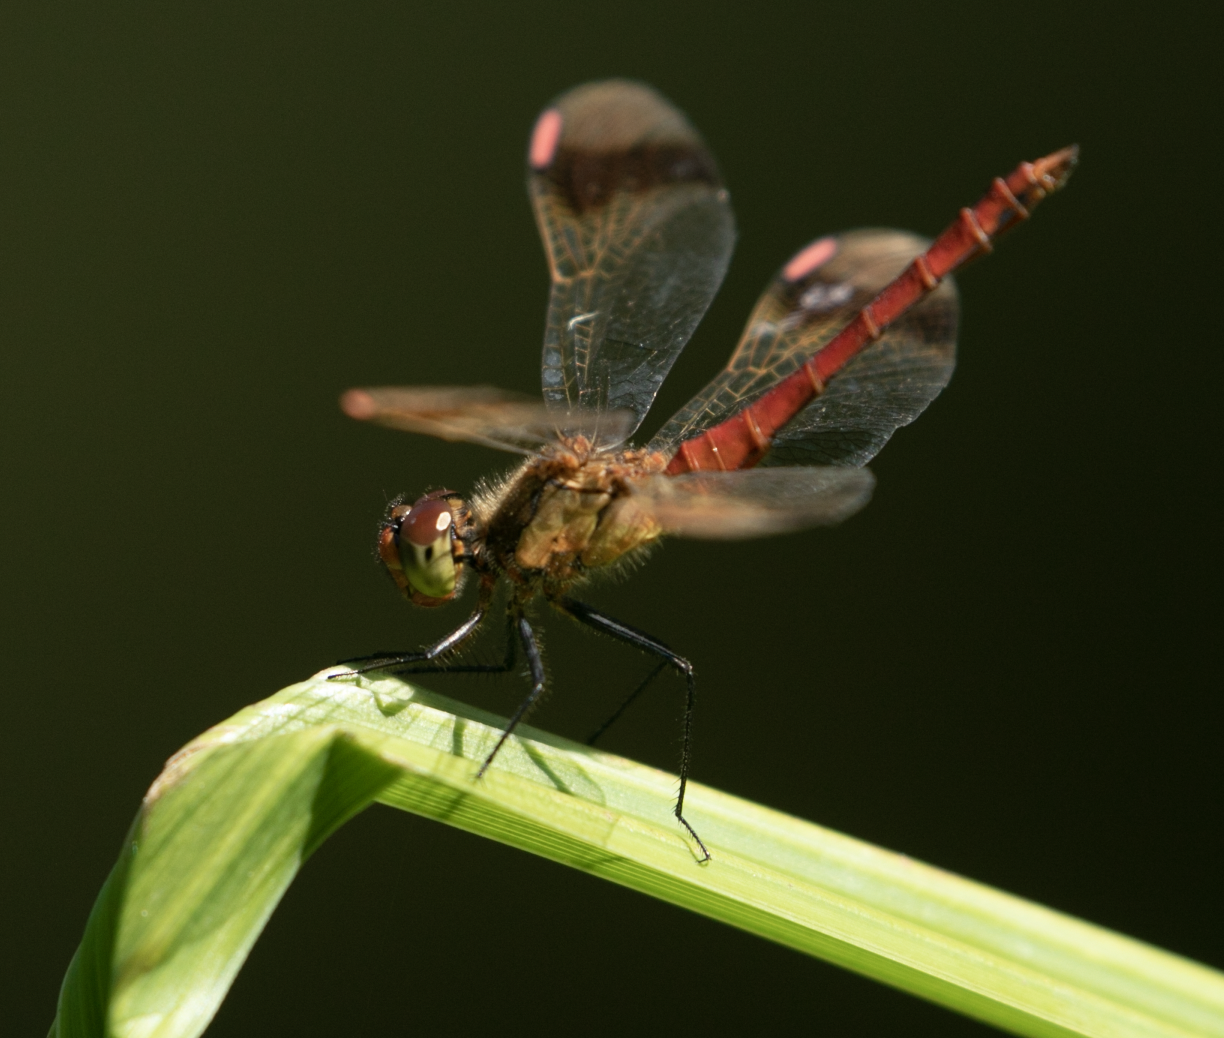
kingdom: Animalia
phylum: Arthropoda
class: Insecta
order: Odonata
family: Libellulidae
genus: Sympetrum
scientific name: Sympetrum pedemontanum
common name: Banded darter
